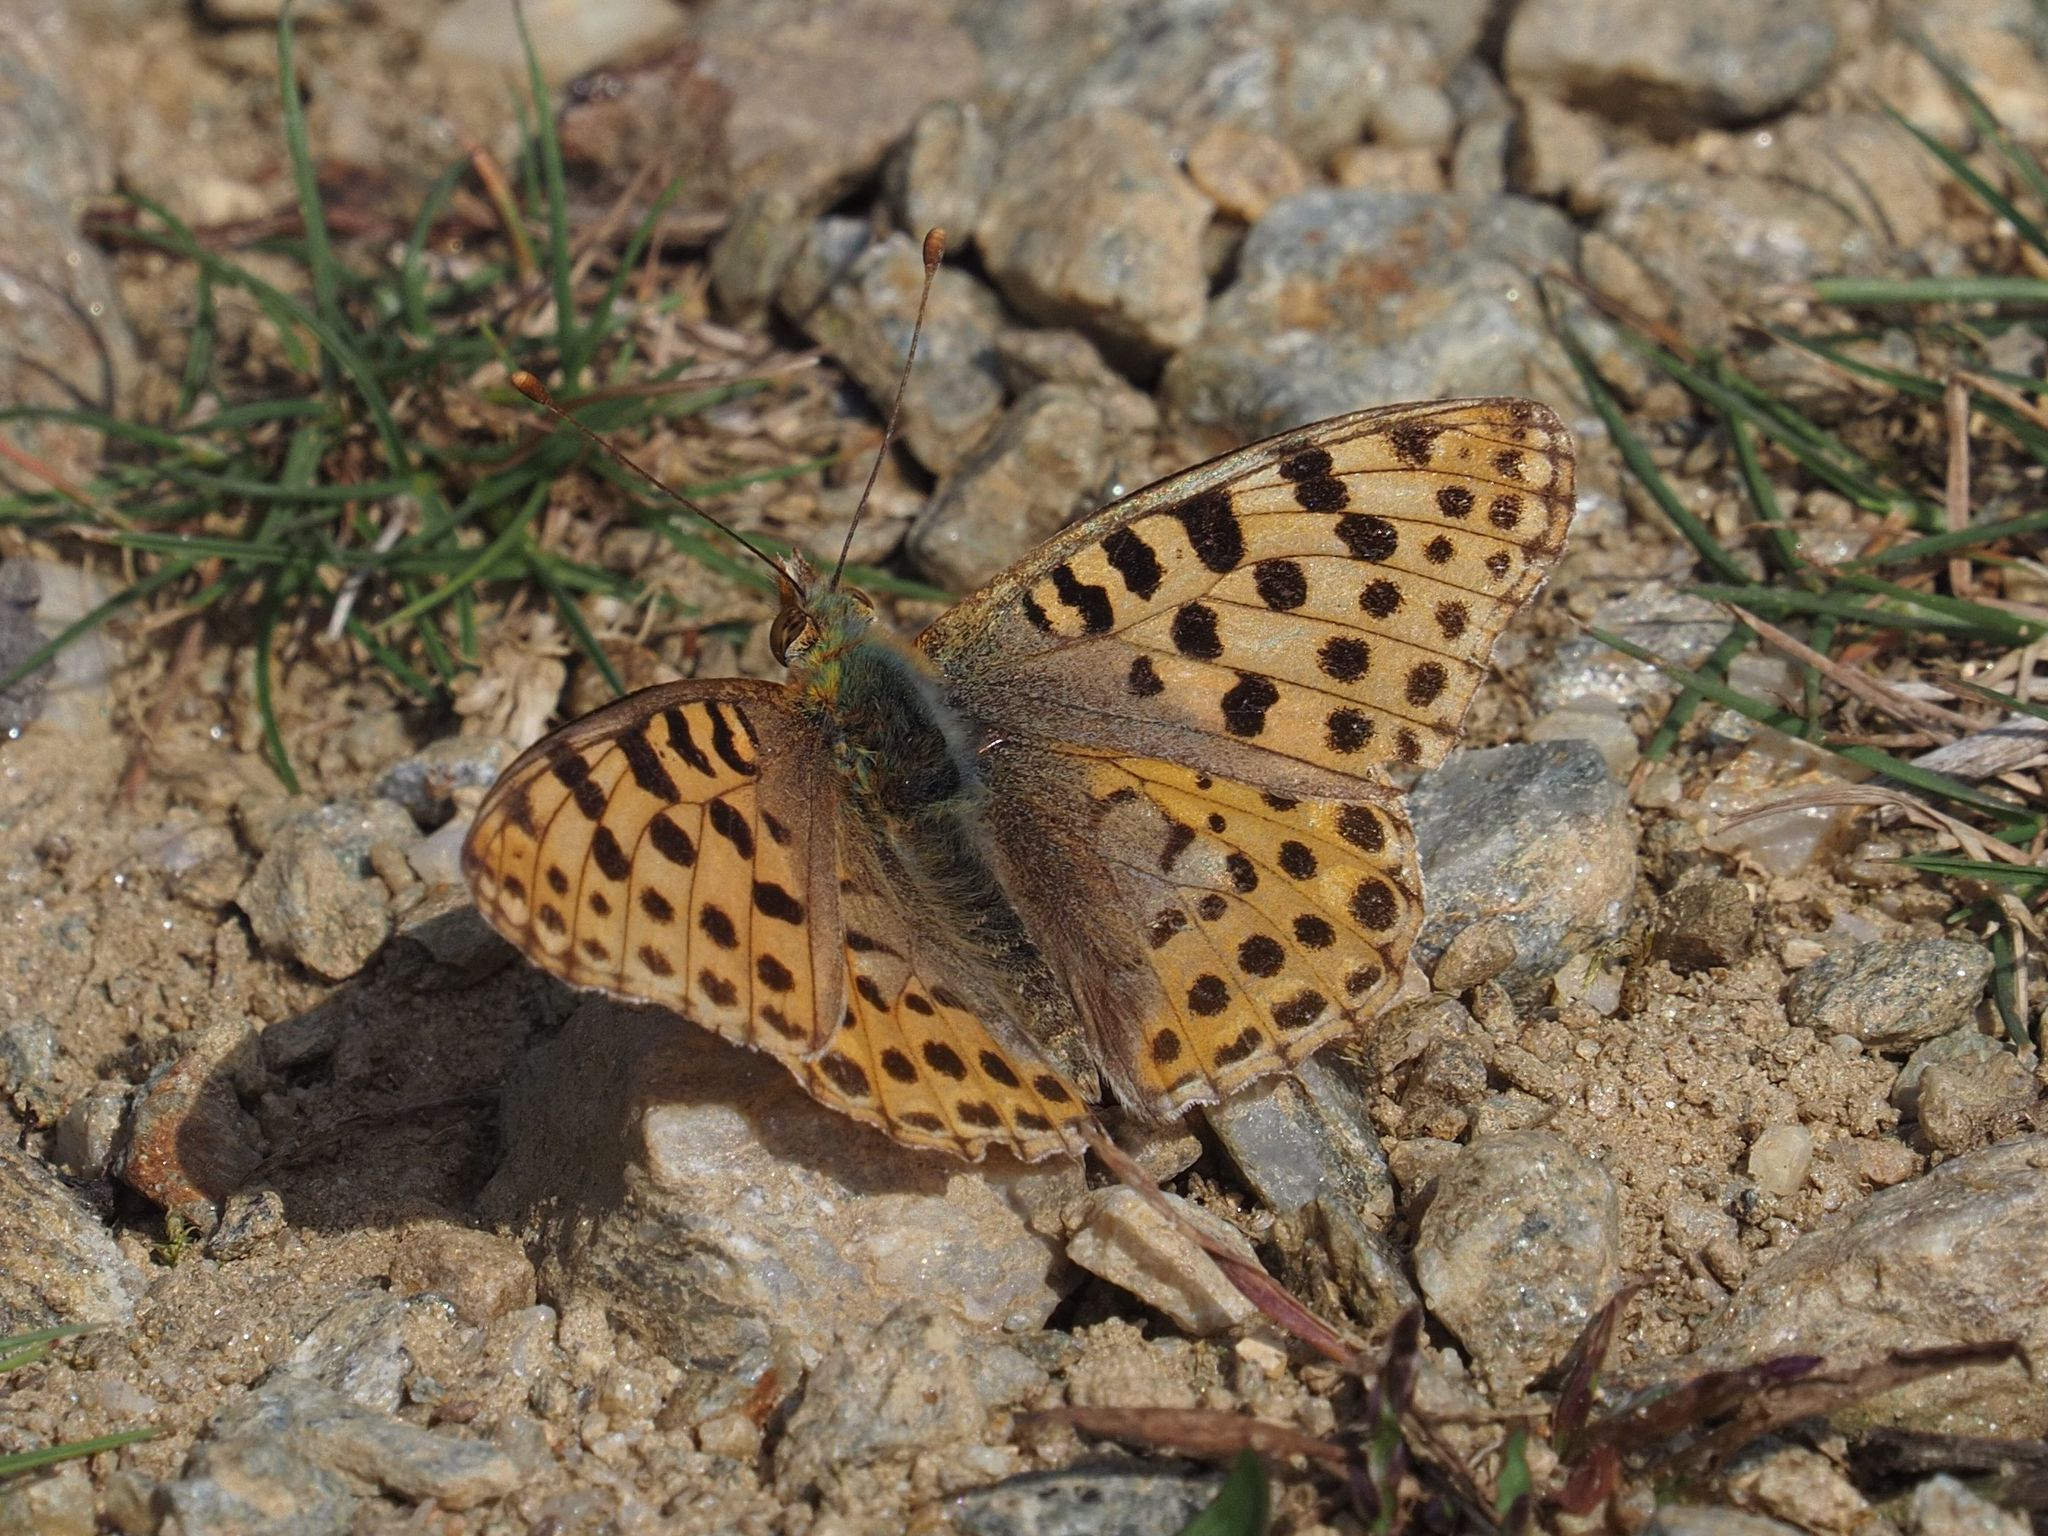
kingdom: Animalia
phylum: Arthropoda
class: Insecta
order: Lepidoptera
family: Nymphalidae
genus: Issoria
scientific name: Issoria lathonia
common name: Queen of spain fritillary
